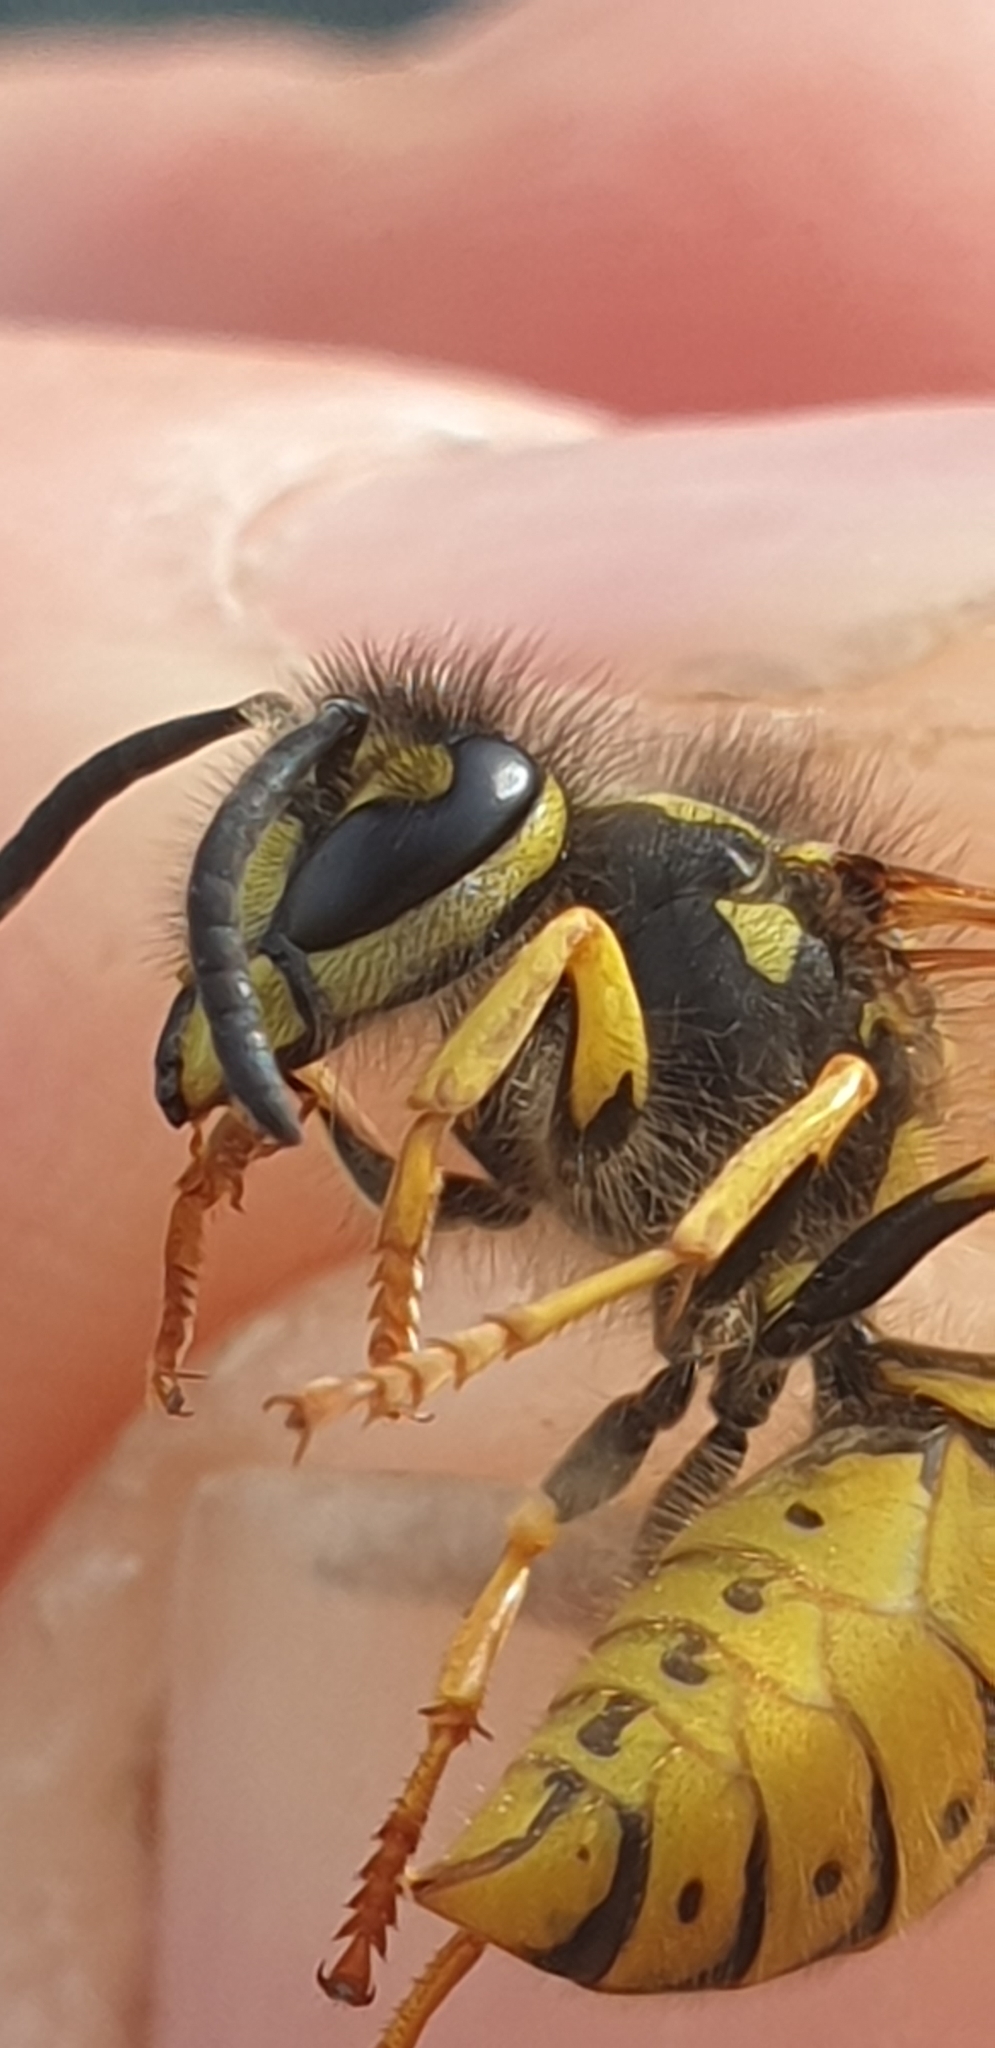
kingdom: Animalia
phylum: Arthropoda
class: Insecta
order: Hymenoptera
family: Vespidae
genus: Vespula
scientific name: Vespula germanica
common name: German wasp
